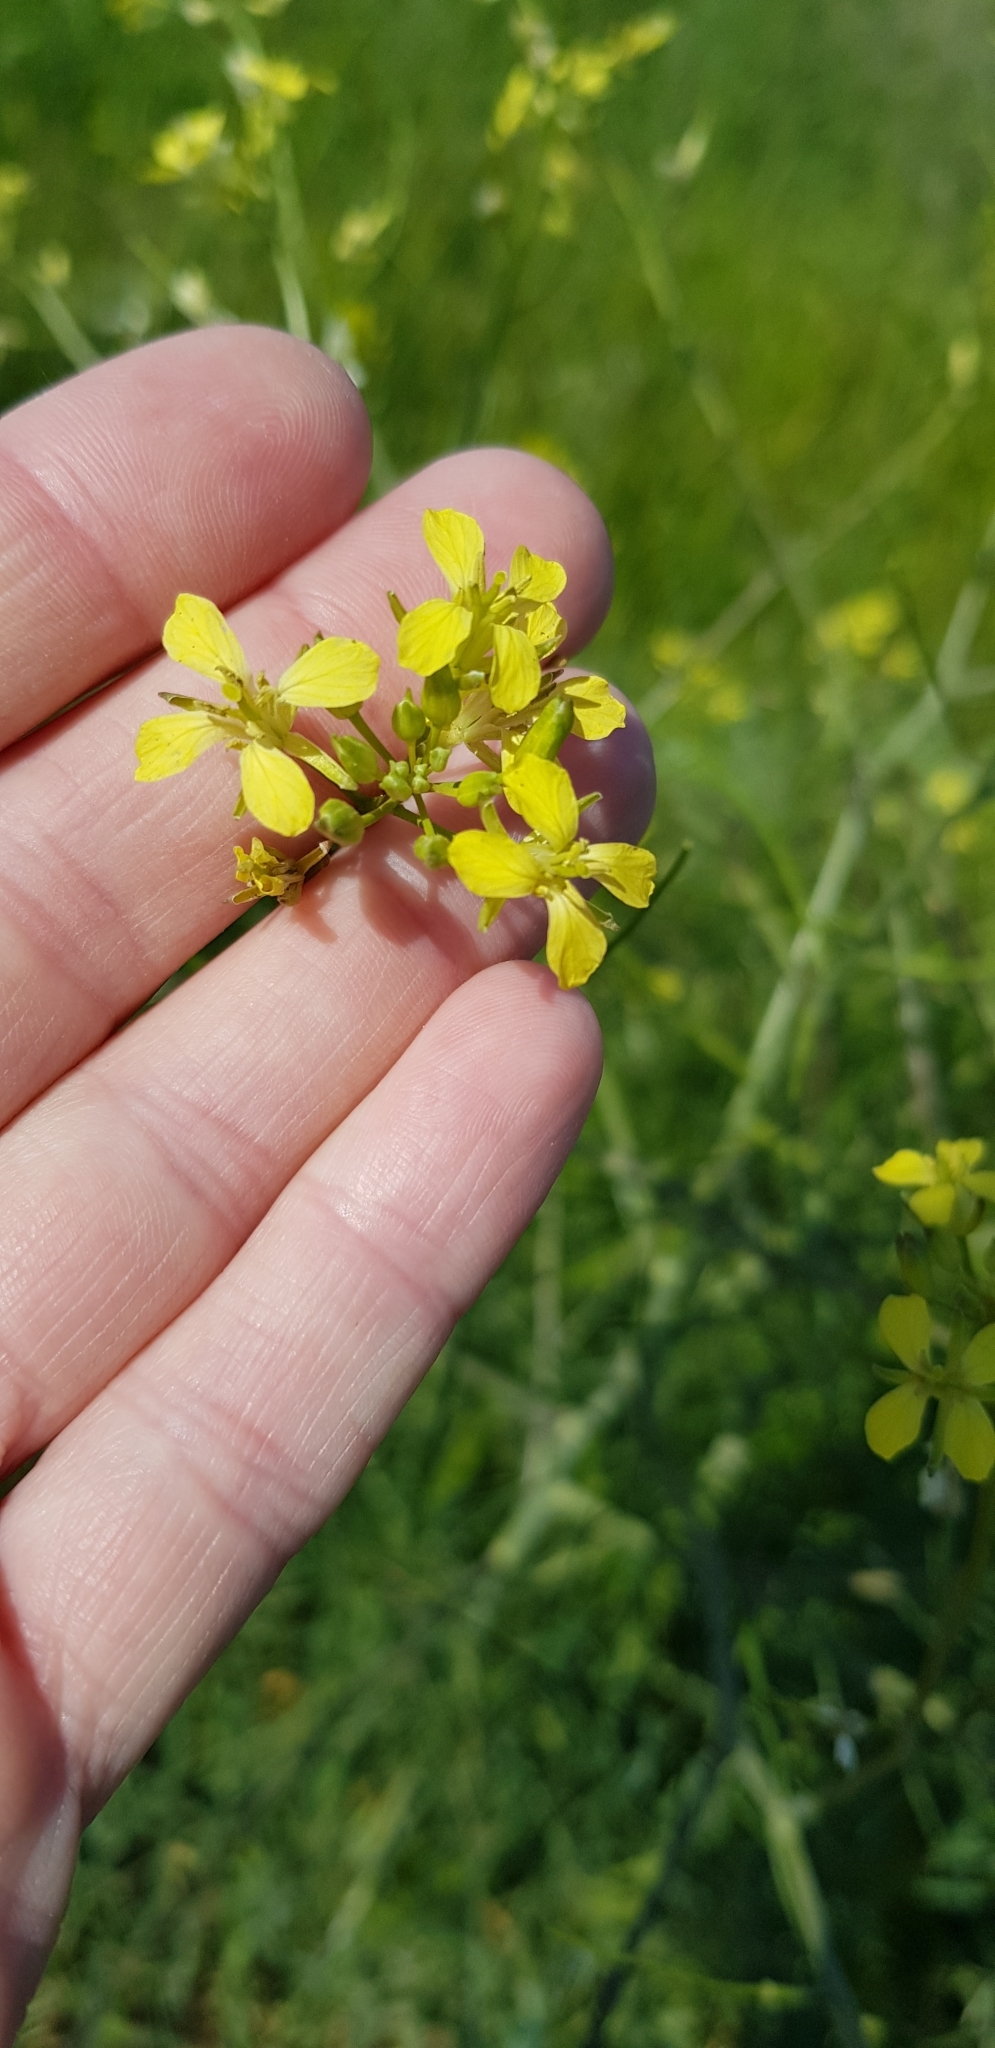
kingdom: Plantae
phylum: Tracheophyta
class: Magnoliopsida
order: Brassicales
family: Brassicaceae
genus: Sisymbrium
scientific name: Sisymbrium altissimum
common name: Tall rocket
